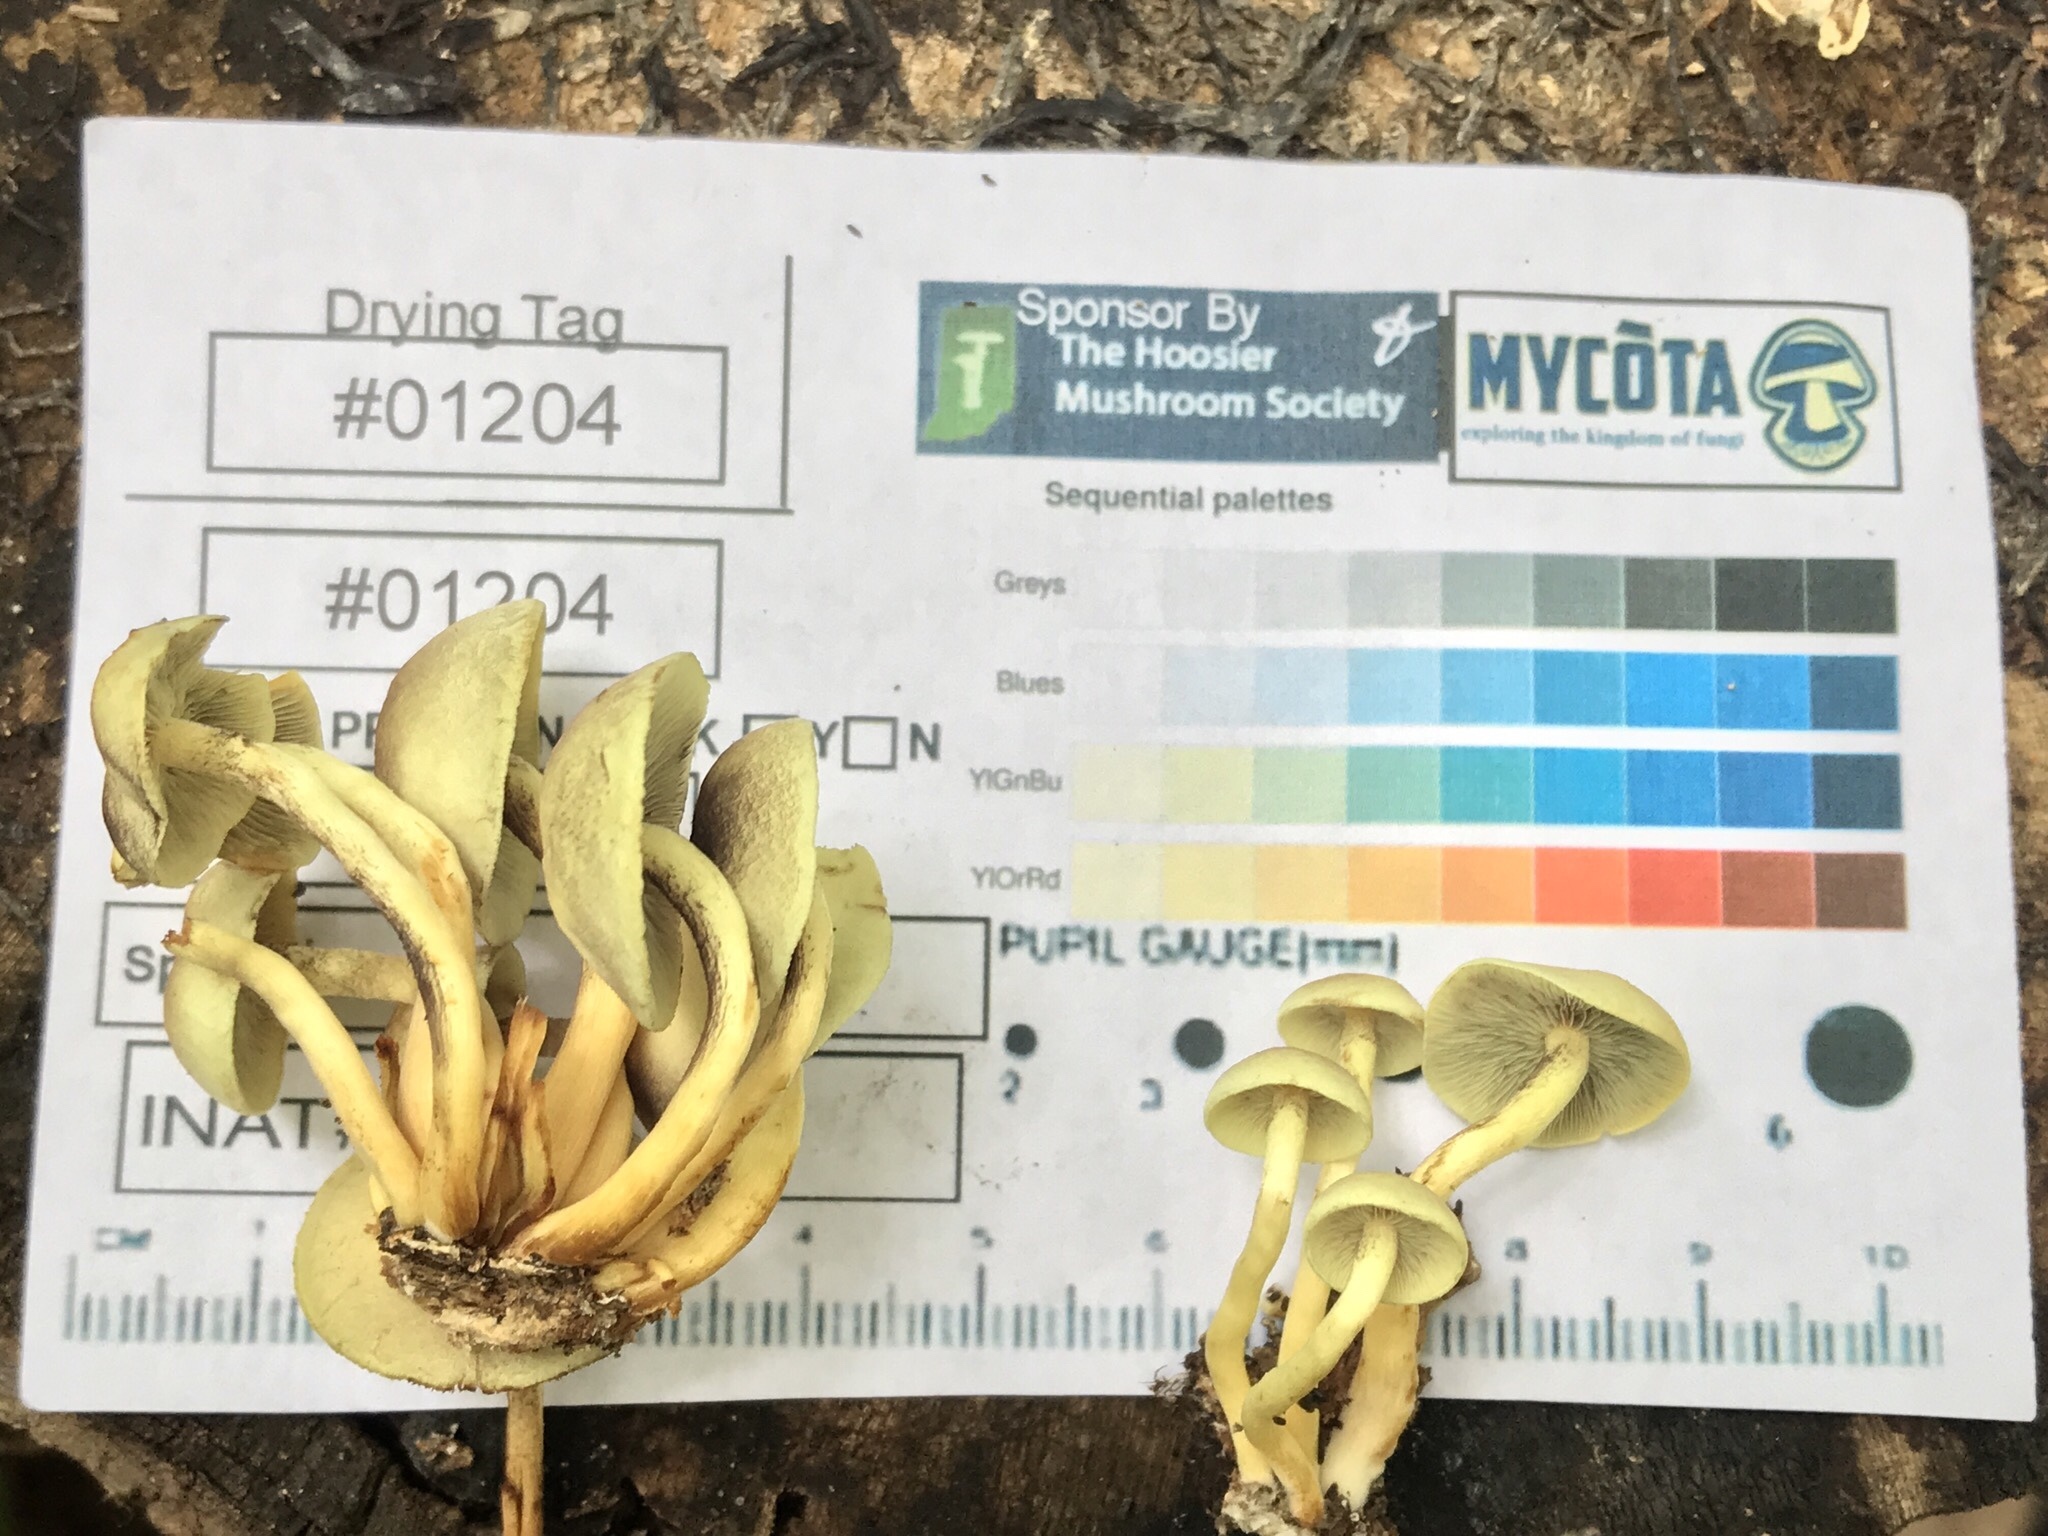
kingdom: Fungi
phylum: Basidiomycota
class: Agaricomycetes
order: Agaricales
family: Strophariaceae
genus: Hypholoma
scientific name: Hypholoma fasciculare
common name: Sulphur tuft
